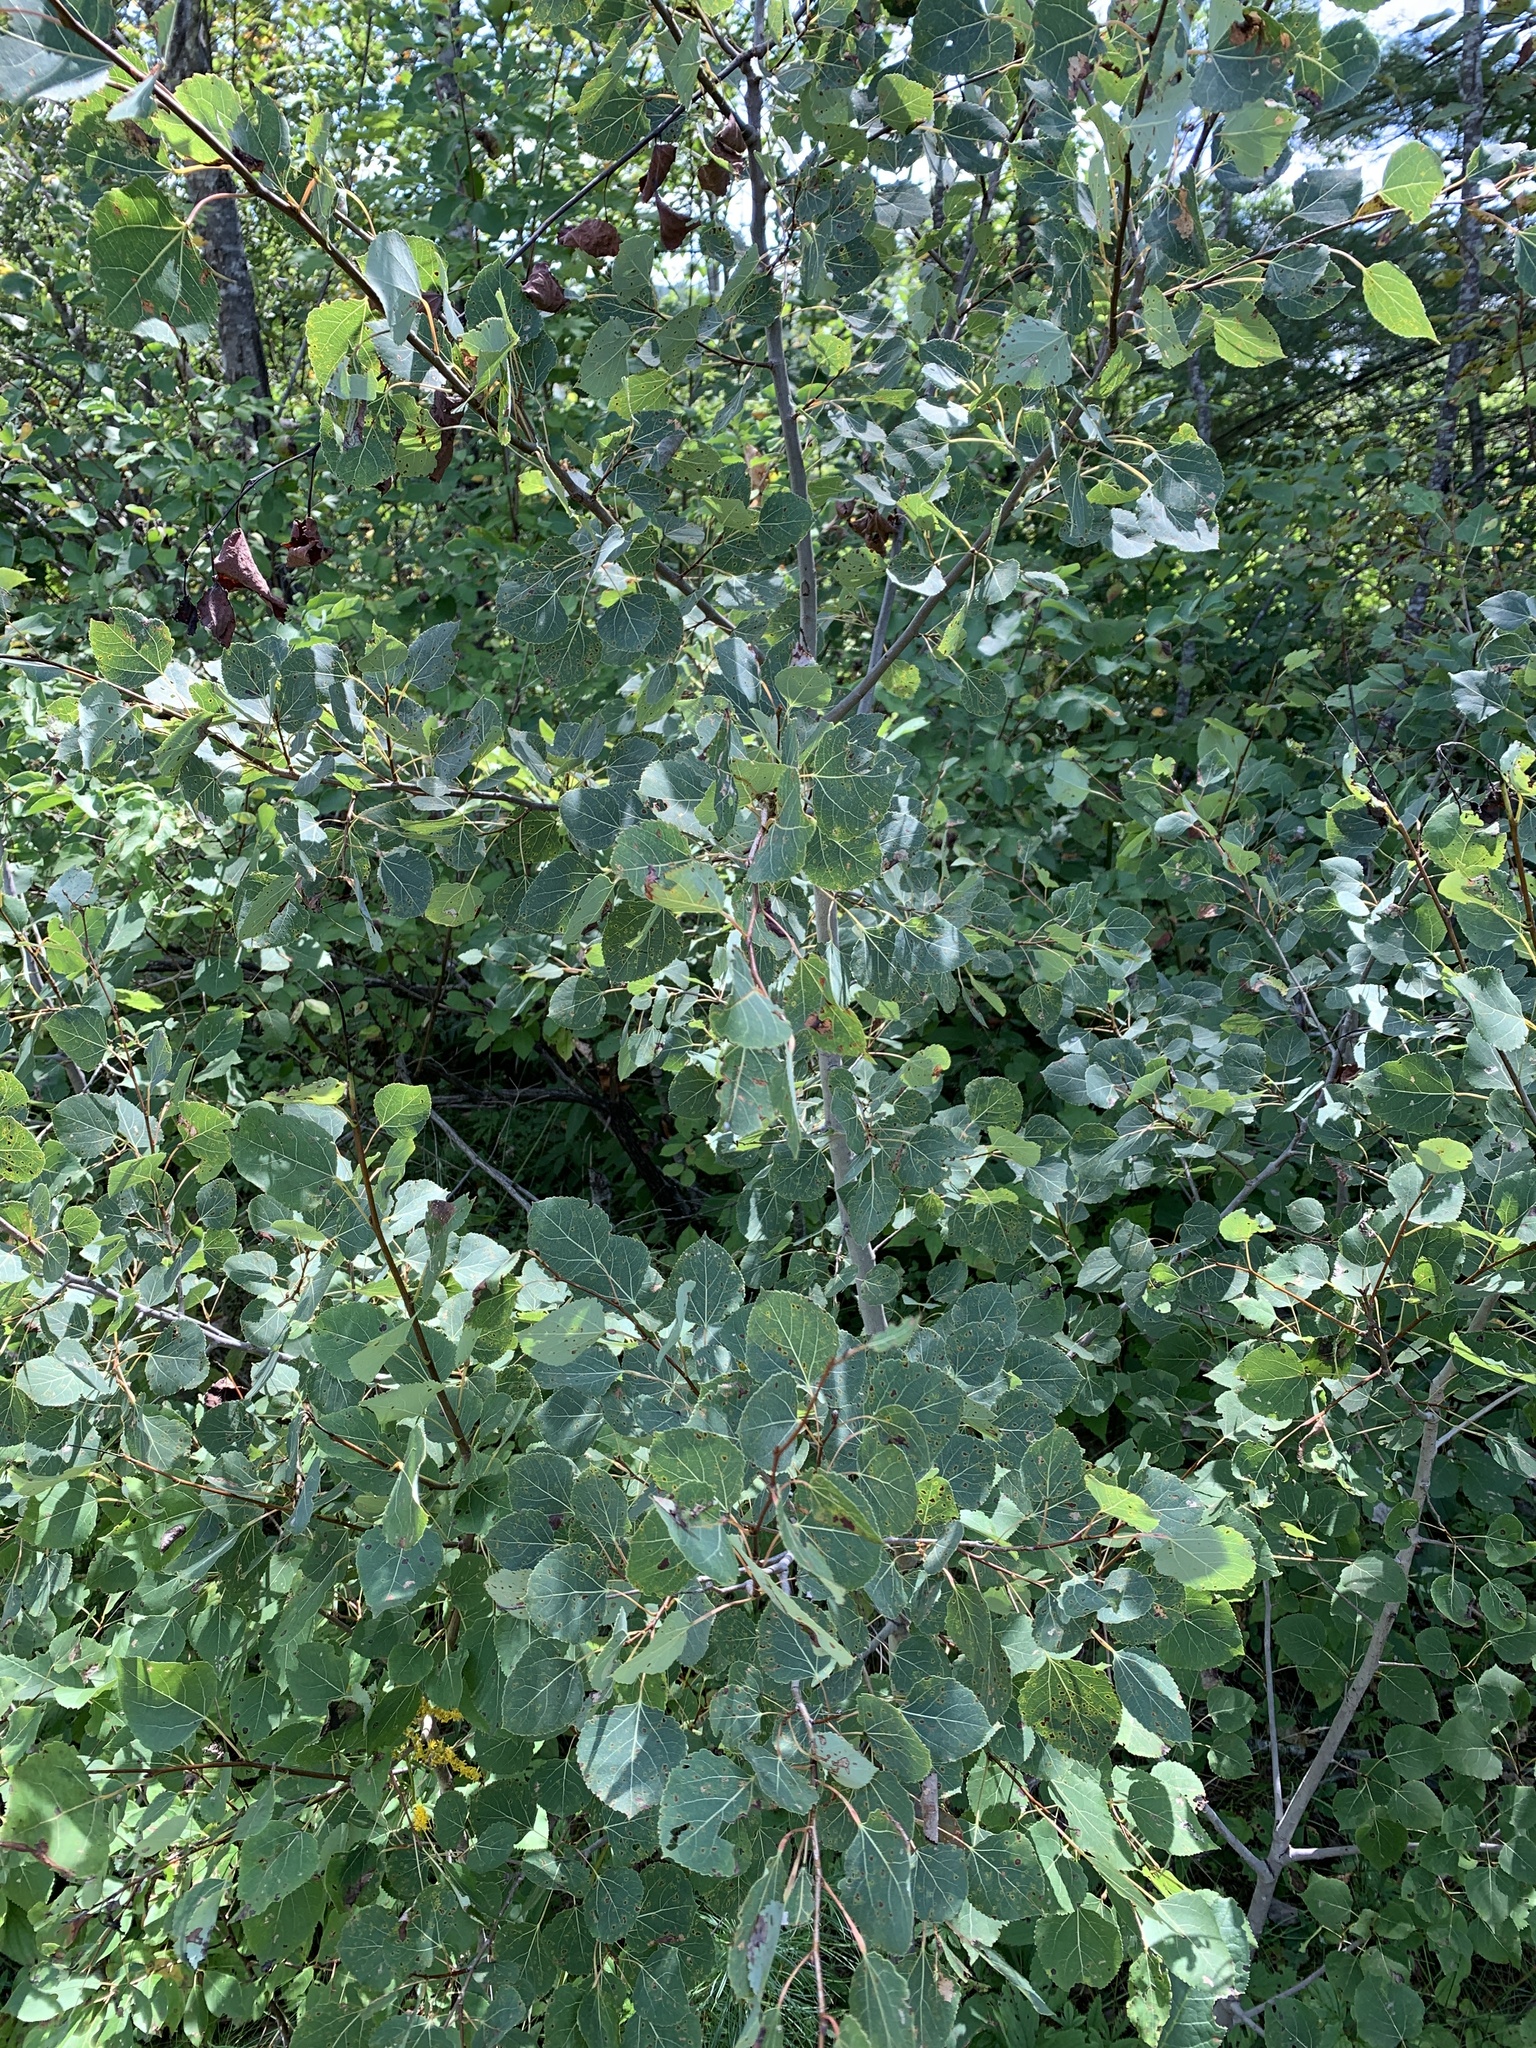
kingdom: Plantae
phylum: Tracheophyta
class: Magnoliopsida
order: Malpighiales
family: Salicaceae
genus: Populus
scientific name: Populus tremuloides
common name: Quaking aspen
